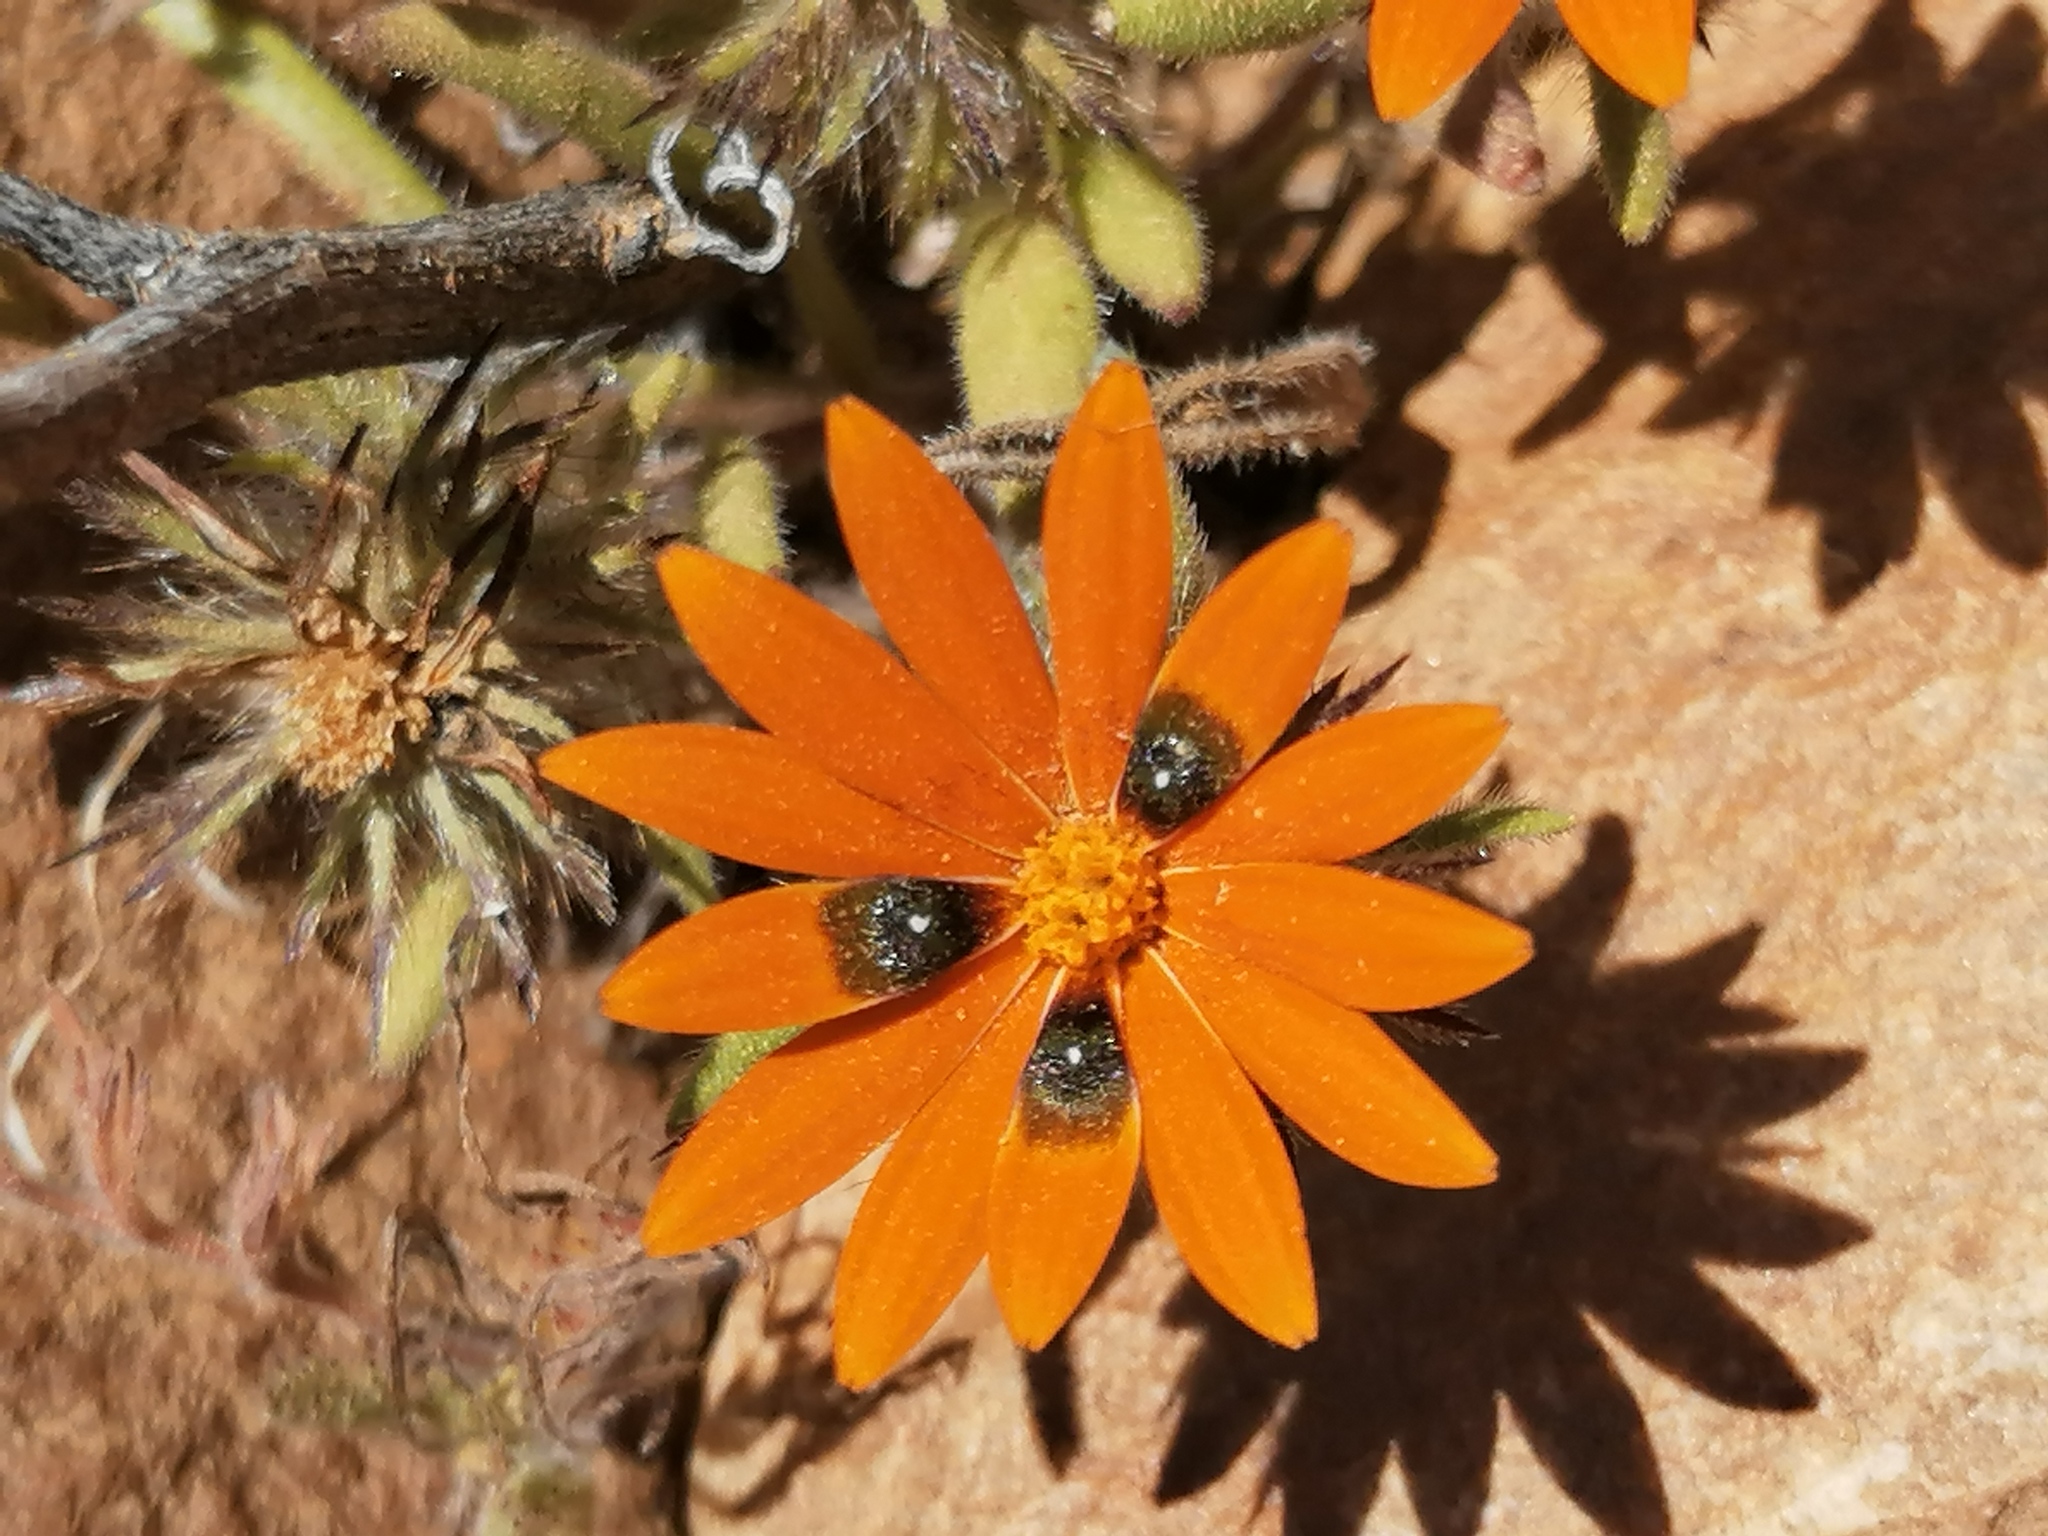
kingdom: Plantae
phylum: Tracheophyta
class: Magnoliopsida
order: Asterales
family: Asteraceae
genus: Gorteria
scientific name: Gorteria diffusa
